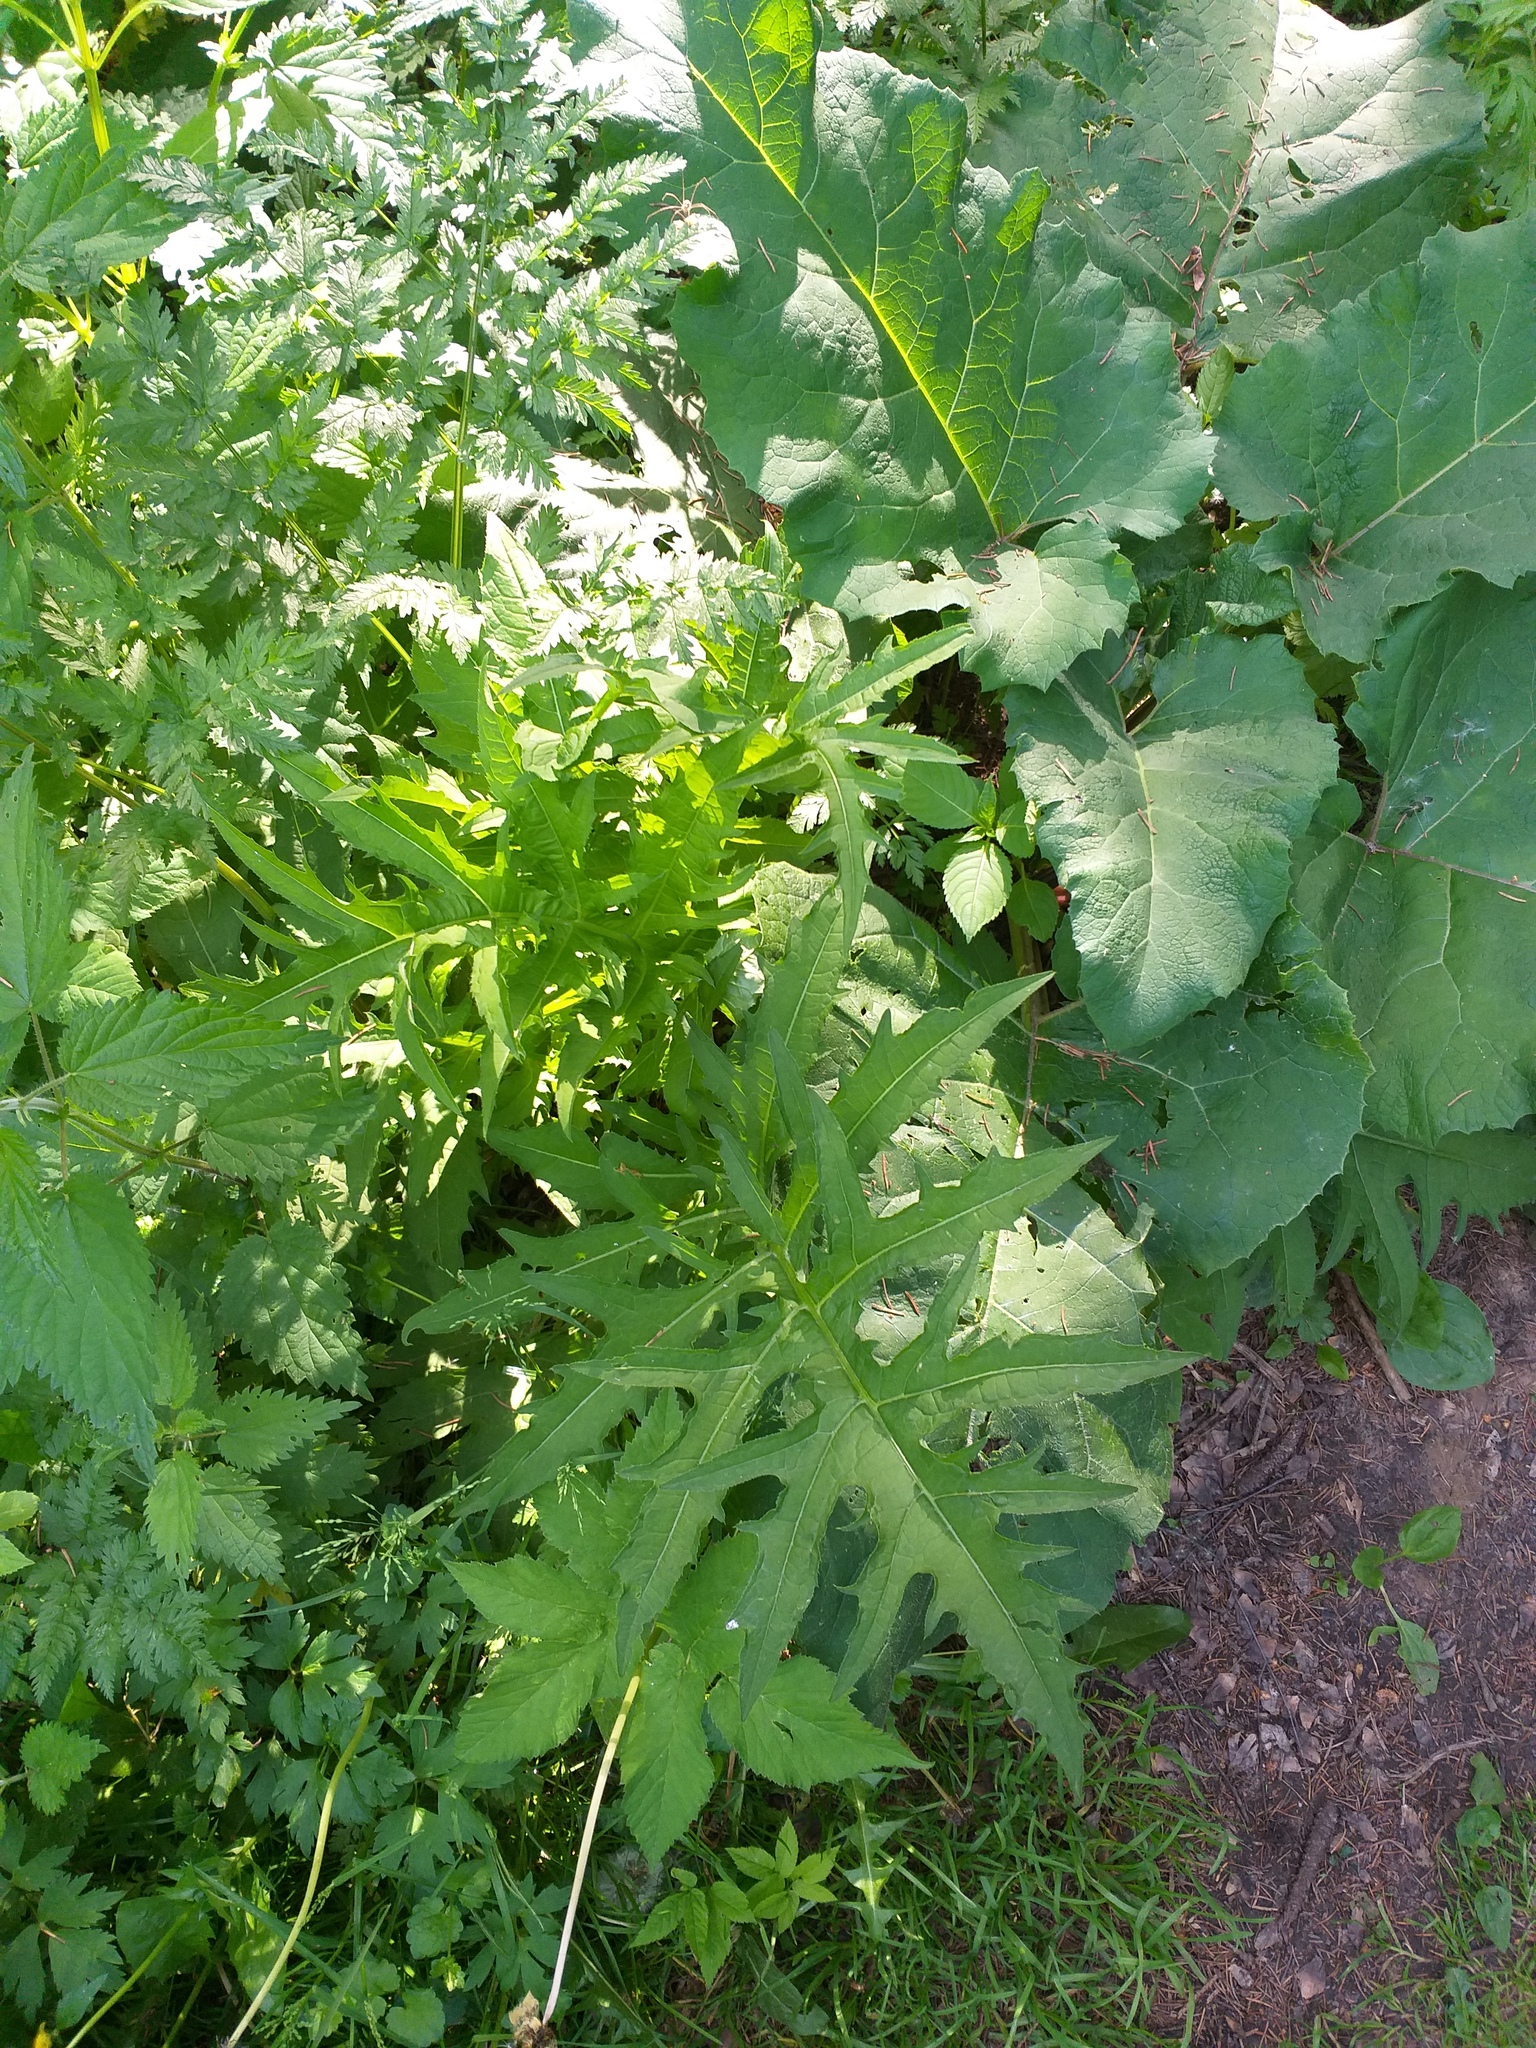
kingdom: Plantae
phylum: Tracheophyta
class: Magnoliopsida
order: Asterales
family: Asteraceae
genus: Cirsium
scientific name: Cirsium oleraceum
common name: Cabbage thistle
